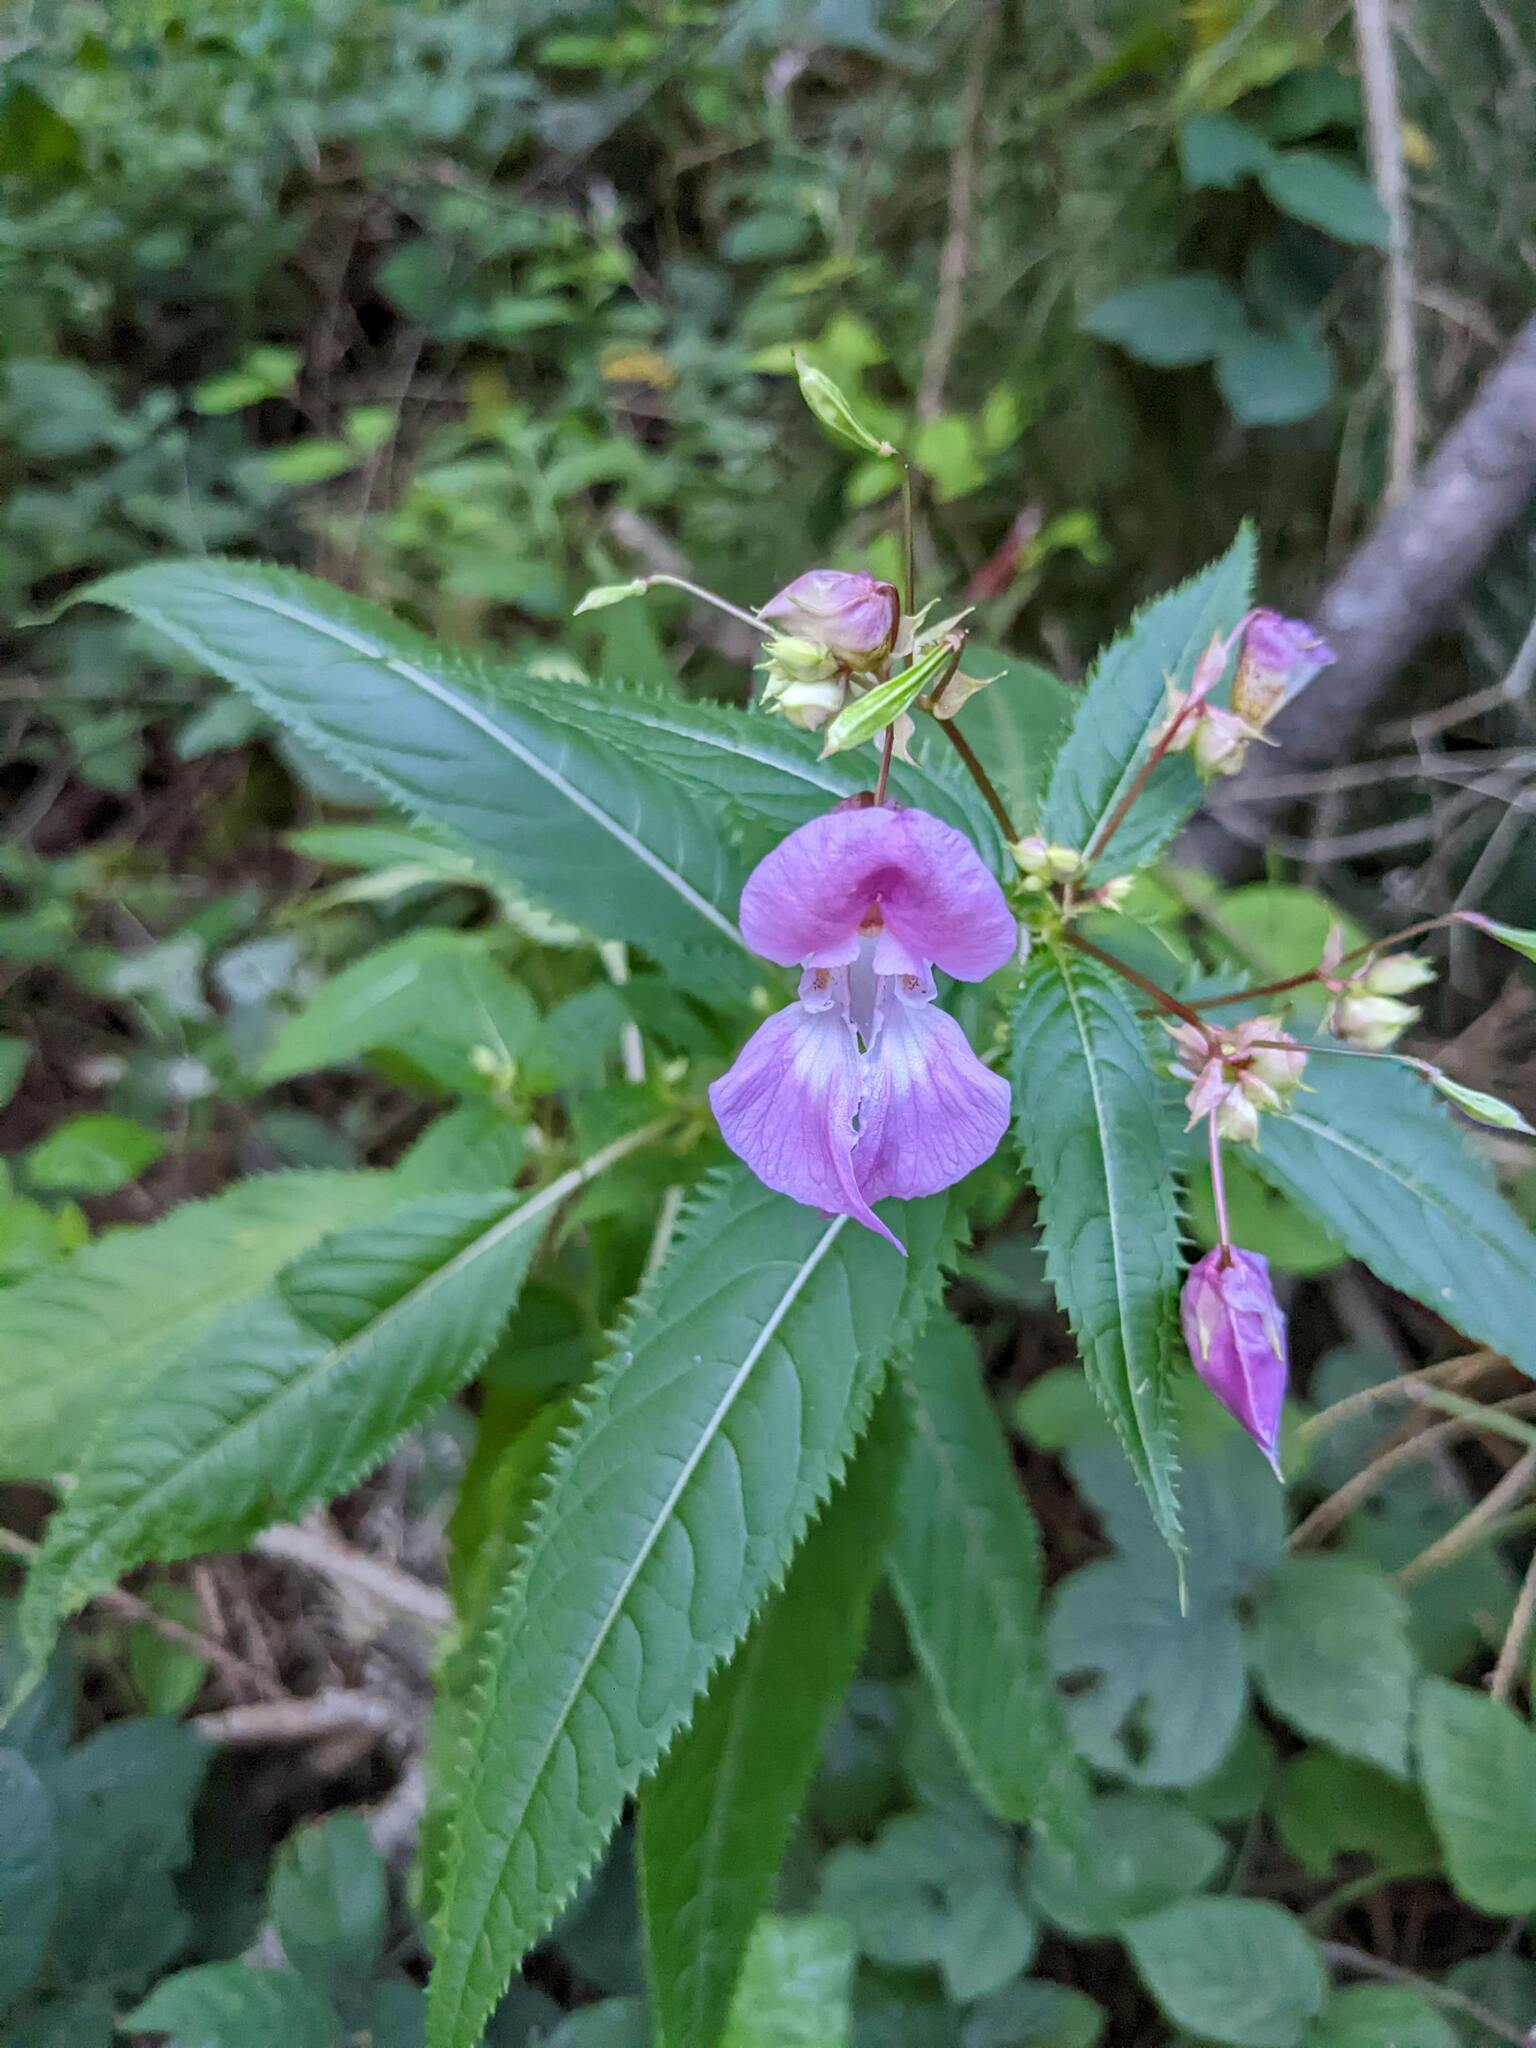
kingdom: Plantae
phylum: Tracheophyta
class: Magnoliopsida
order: Ericales
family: Balsaminaceae
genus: Impatiens
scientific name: Impatiens glandulifera
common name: Himalayan balsam
